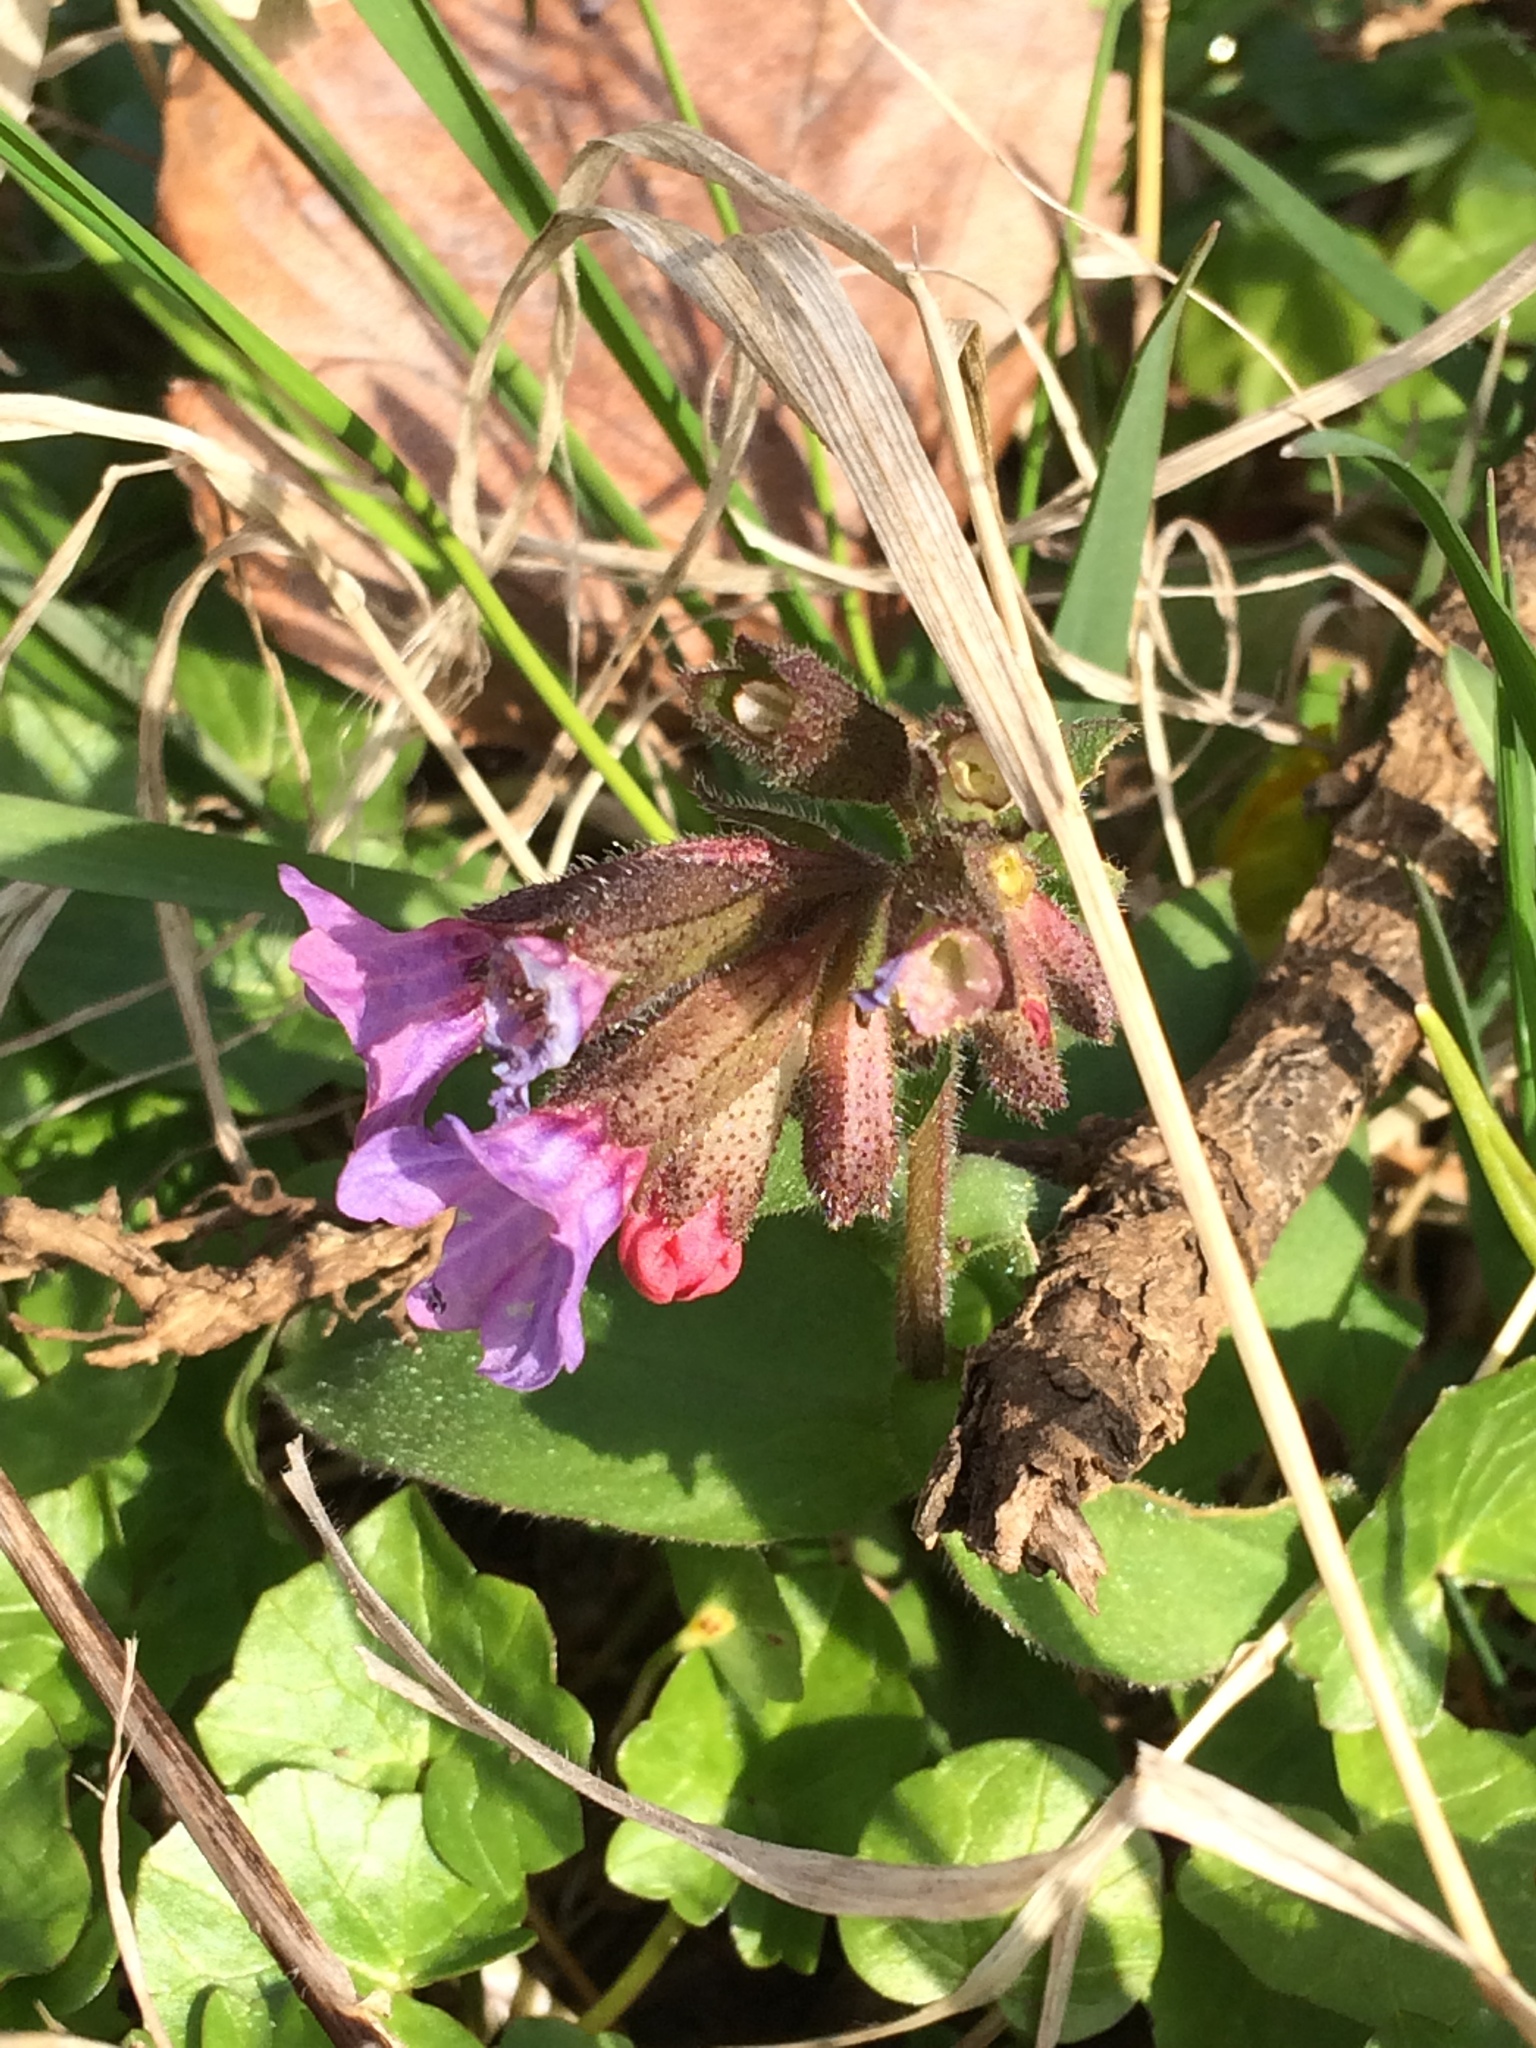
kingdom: Plantae
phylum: Tracheophyta
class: Magnoliopsida
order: Boraginales
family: Boraginaceae
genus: Pulmonaria
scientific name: Pulmonaria officinalis
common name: Lungwort
